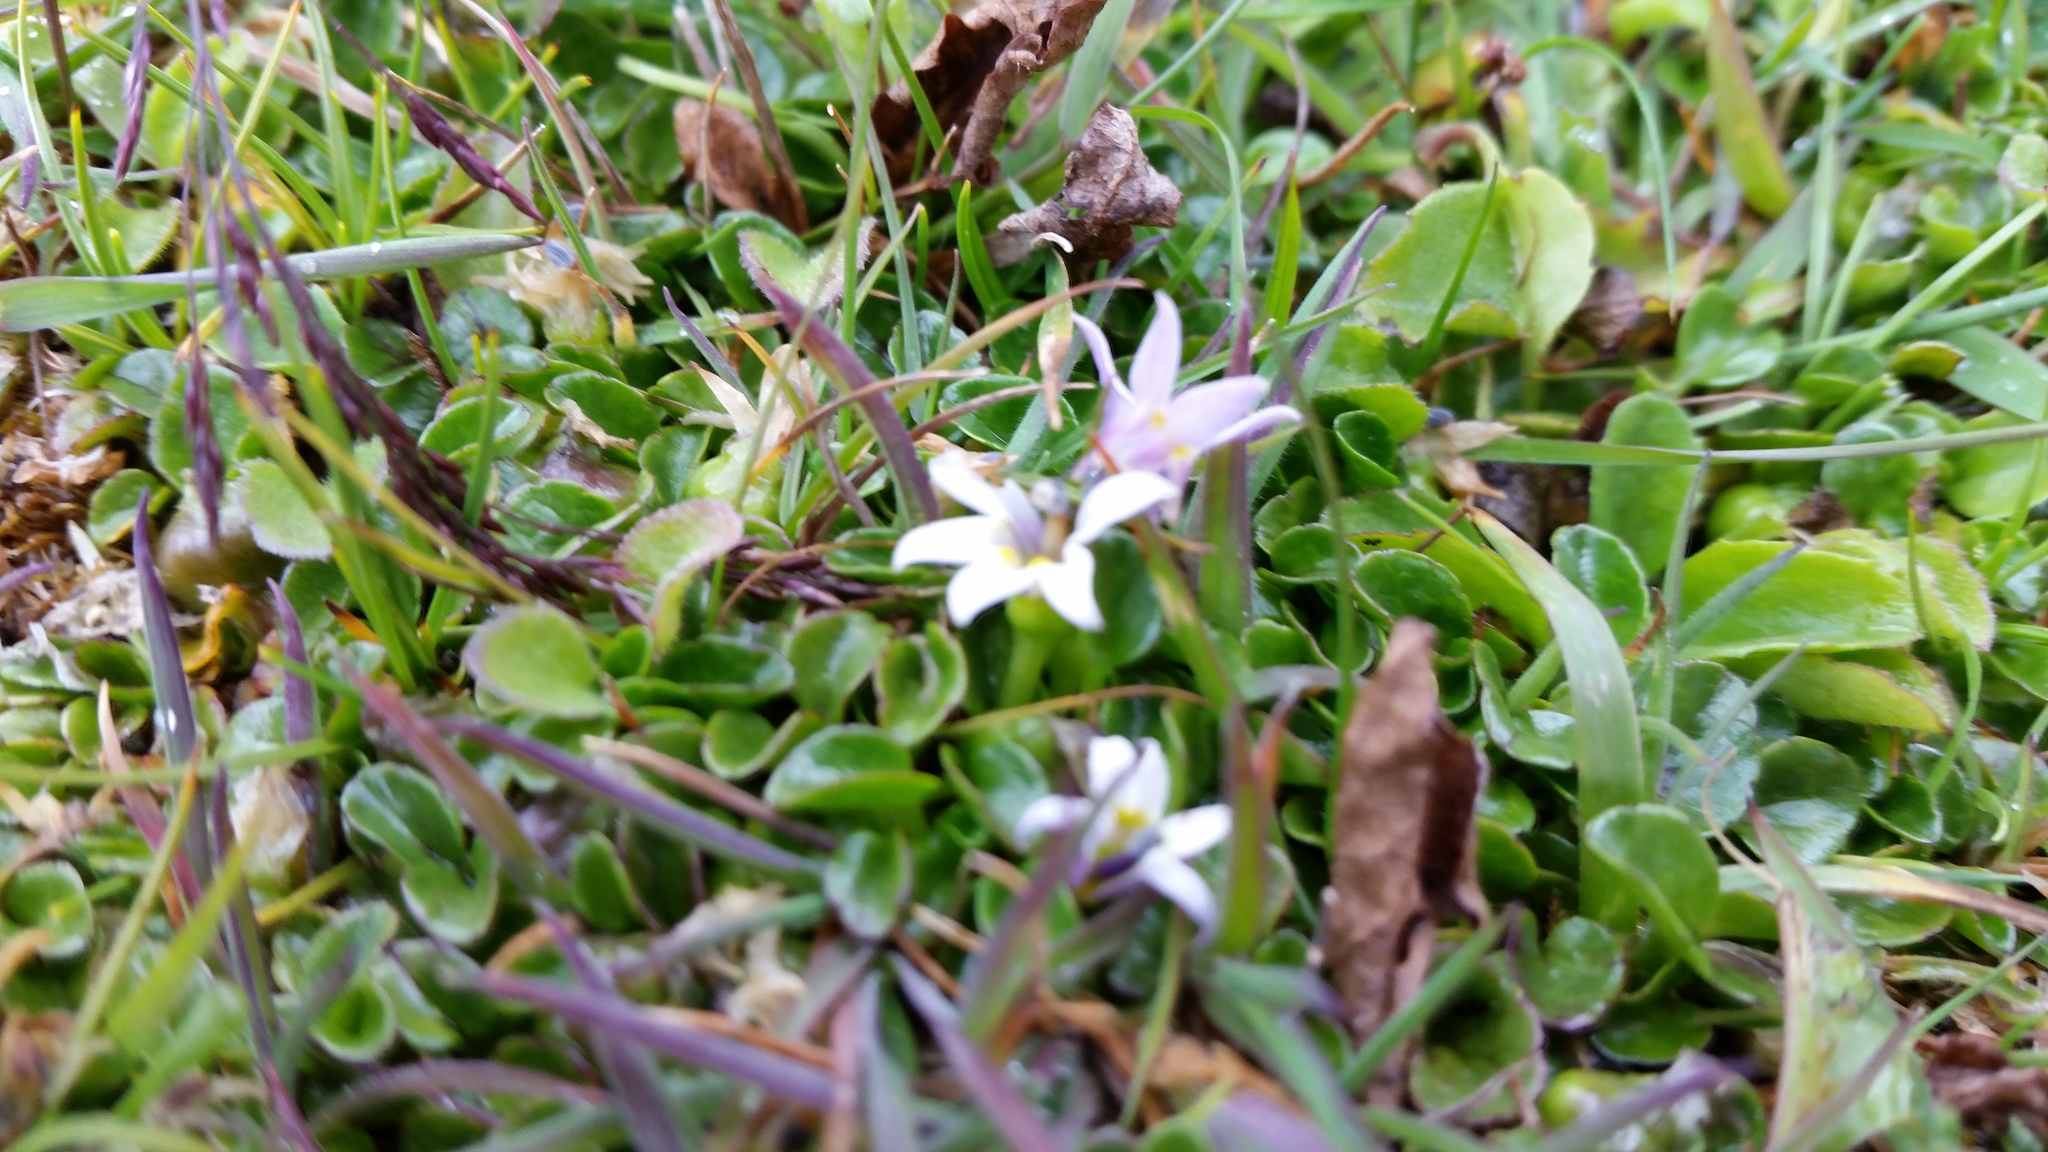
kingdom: Plantae
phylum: Tracheophyta
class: Magnoliopsida
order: Asterales
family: Campanulaceae
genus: Lobelia
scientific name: Lobelia oligophylla
